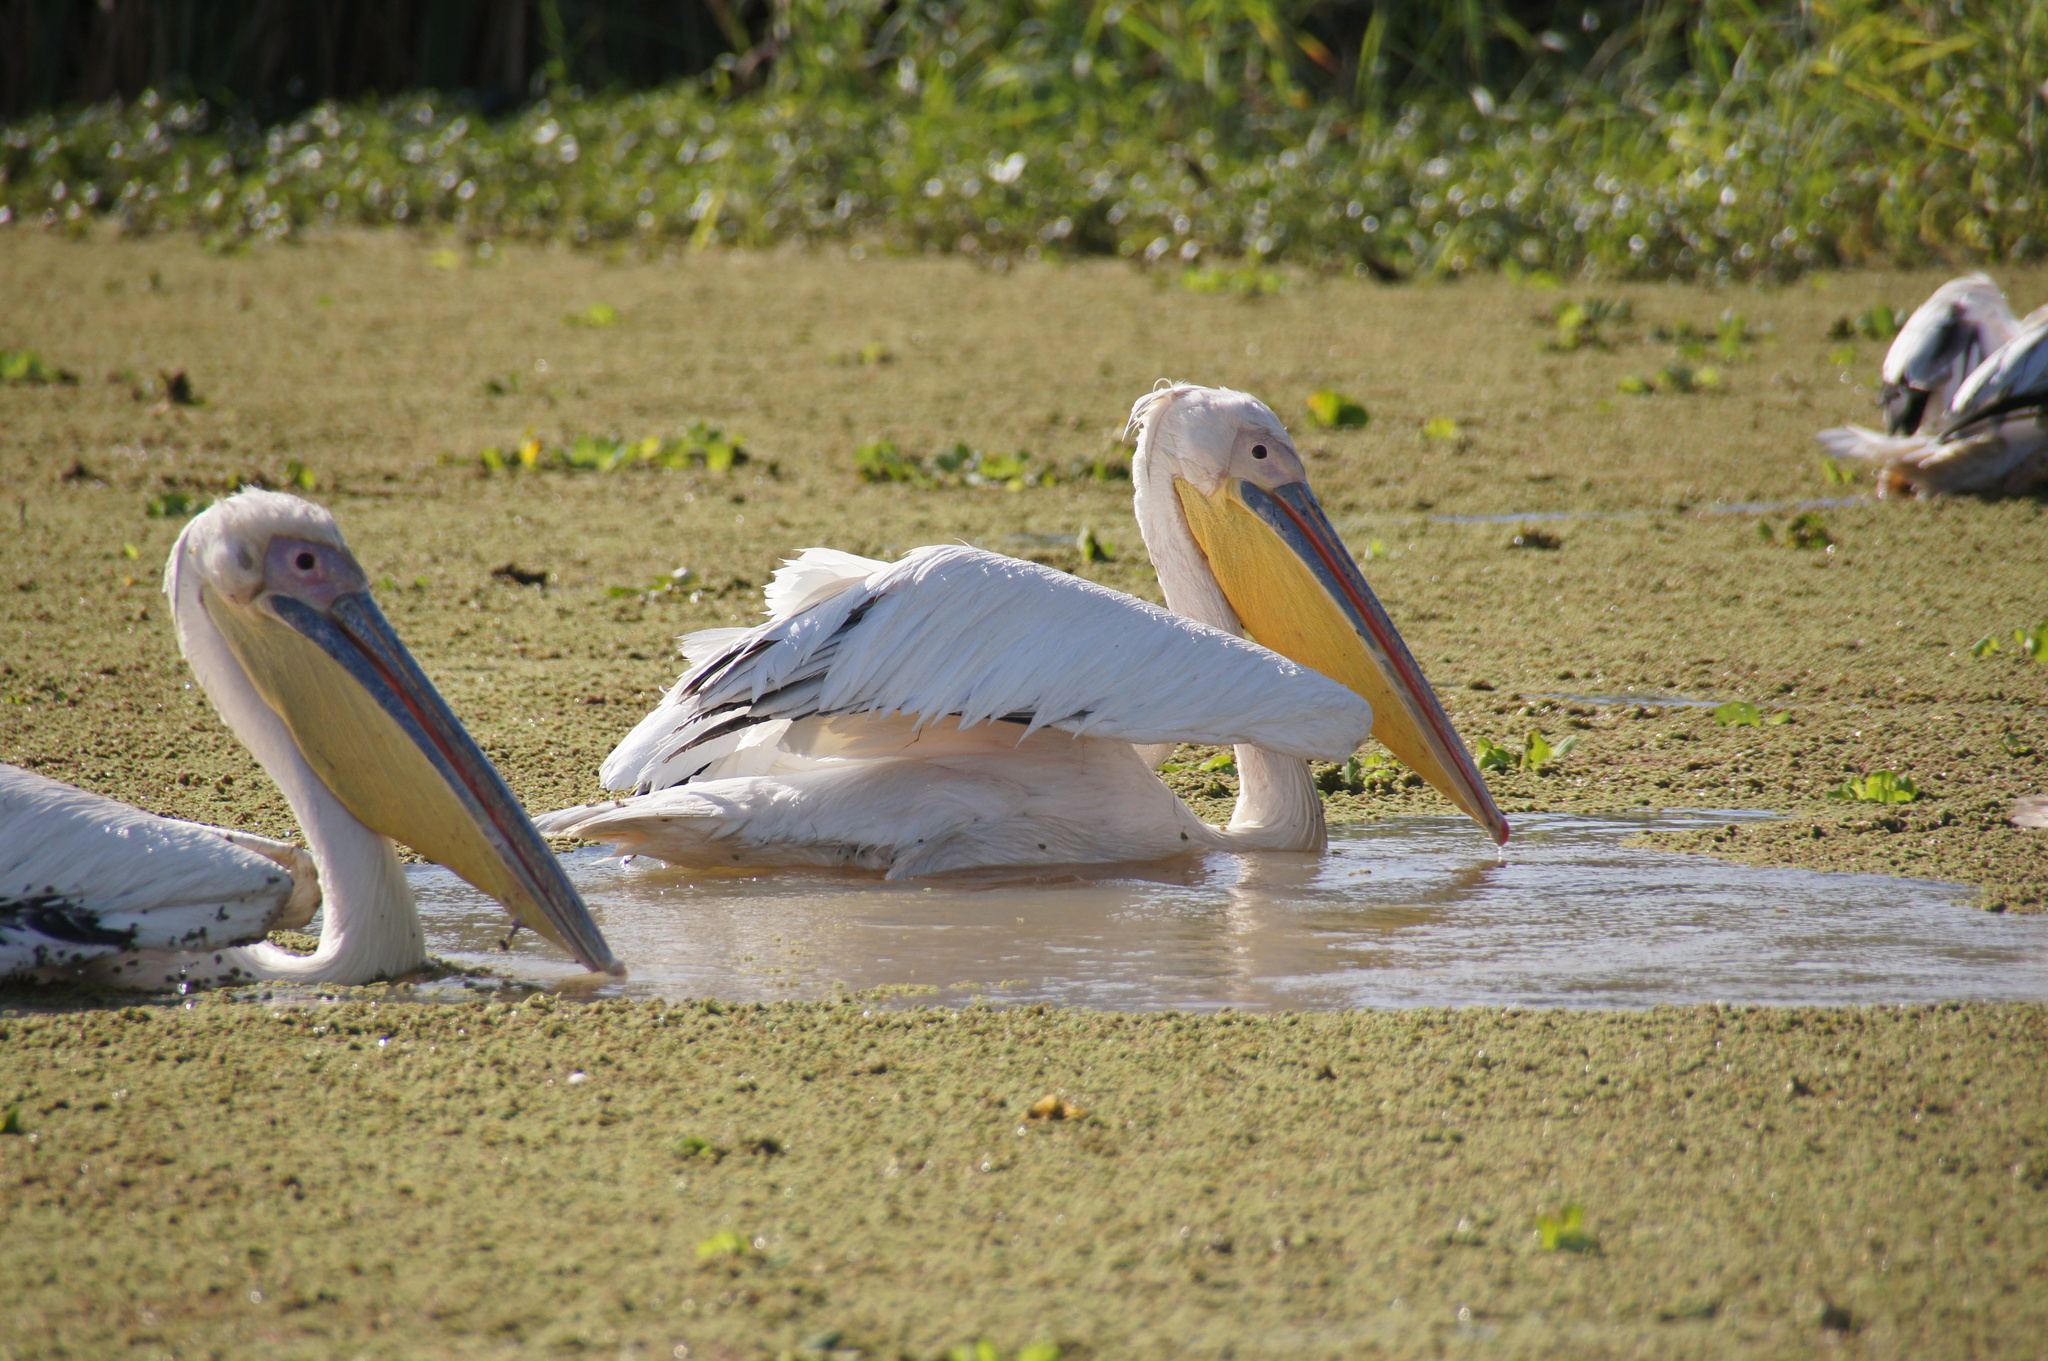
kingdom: Animalia
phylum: Chordata
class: Aves
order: Pelecaniformes
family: Pelecanidae
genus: Pelecanus
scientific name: Pelecanus onocrotalus
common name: Great white pelican
